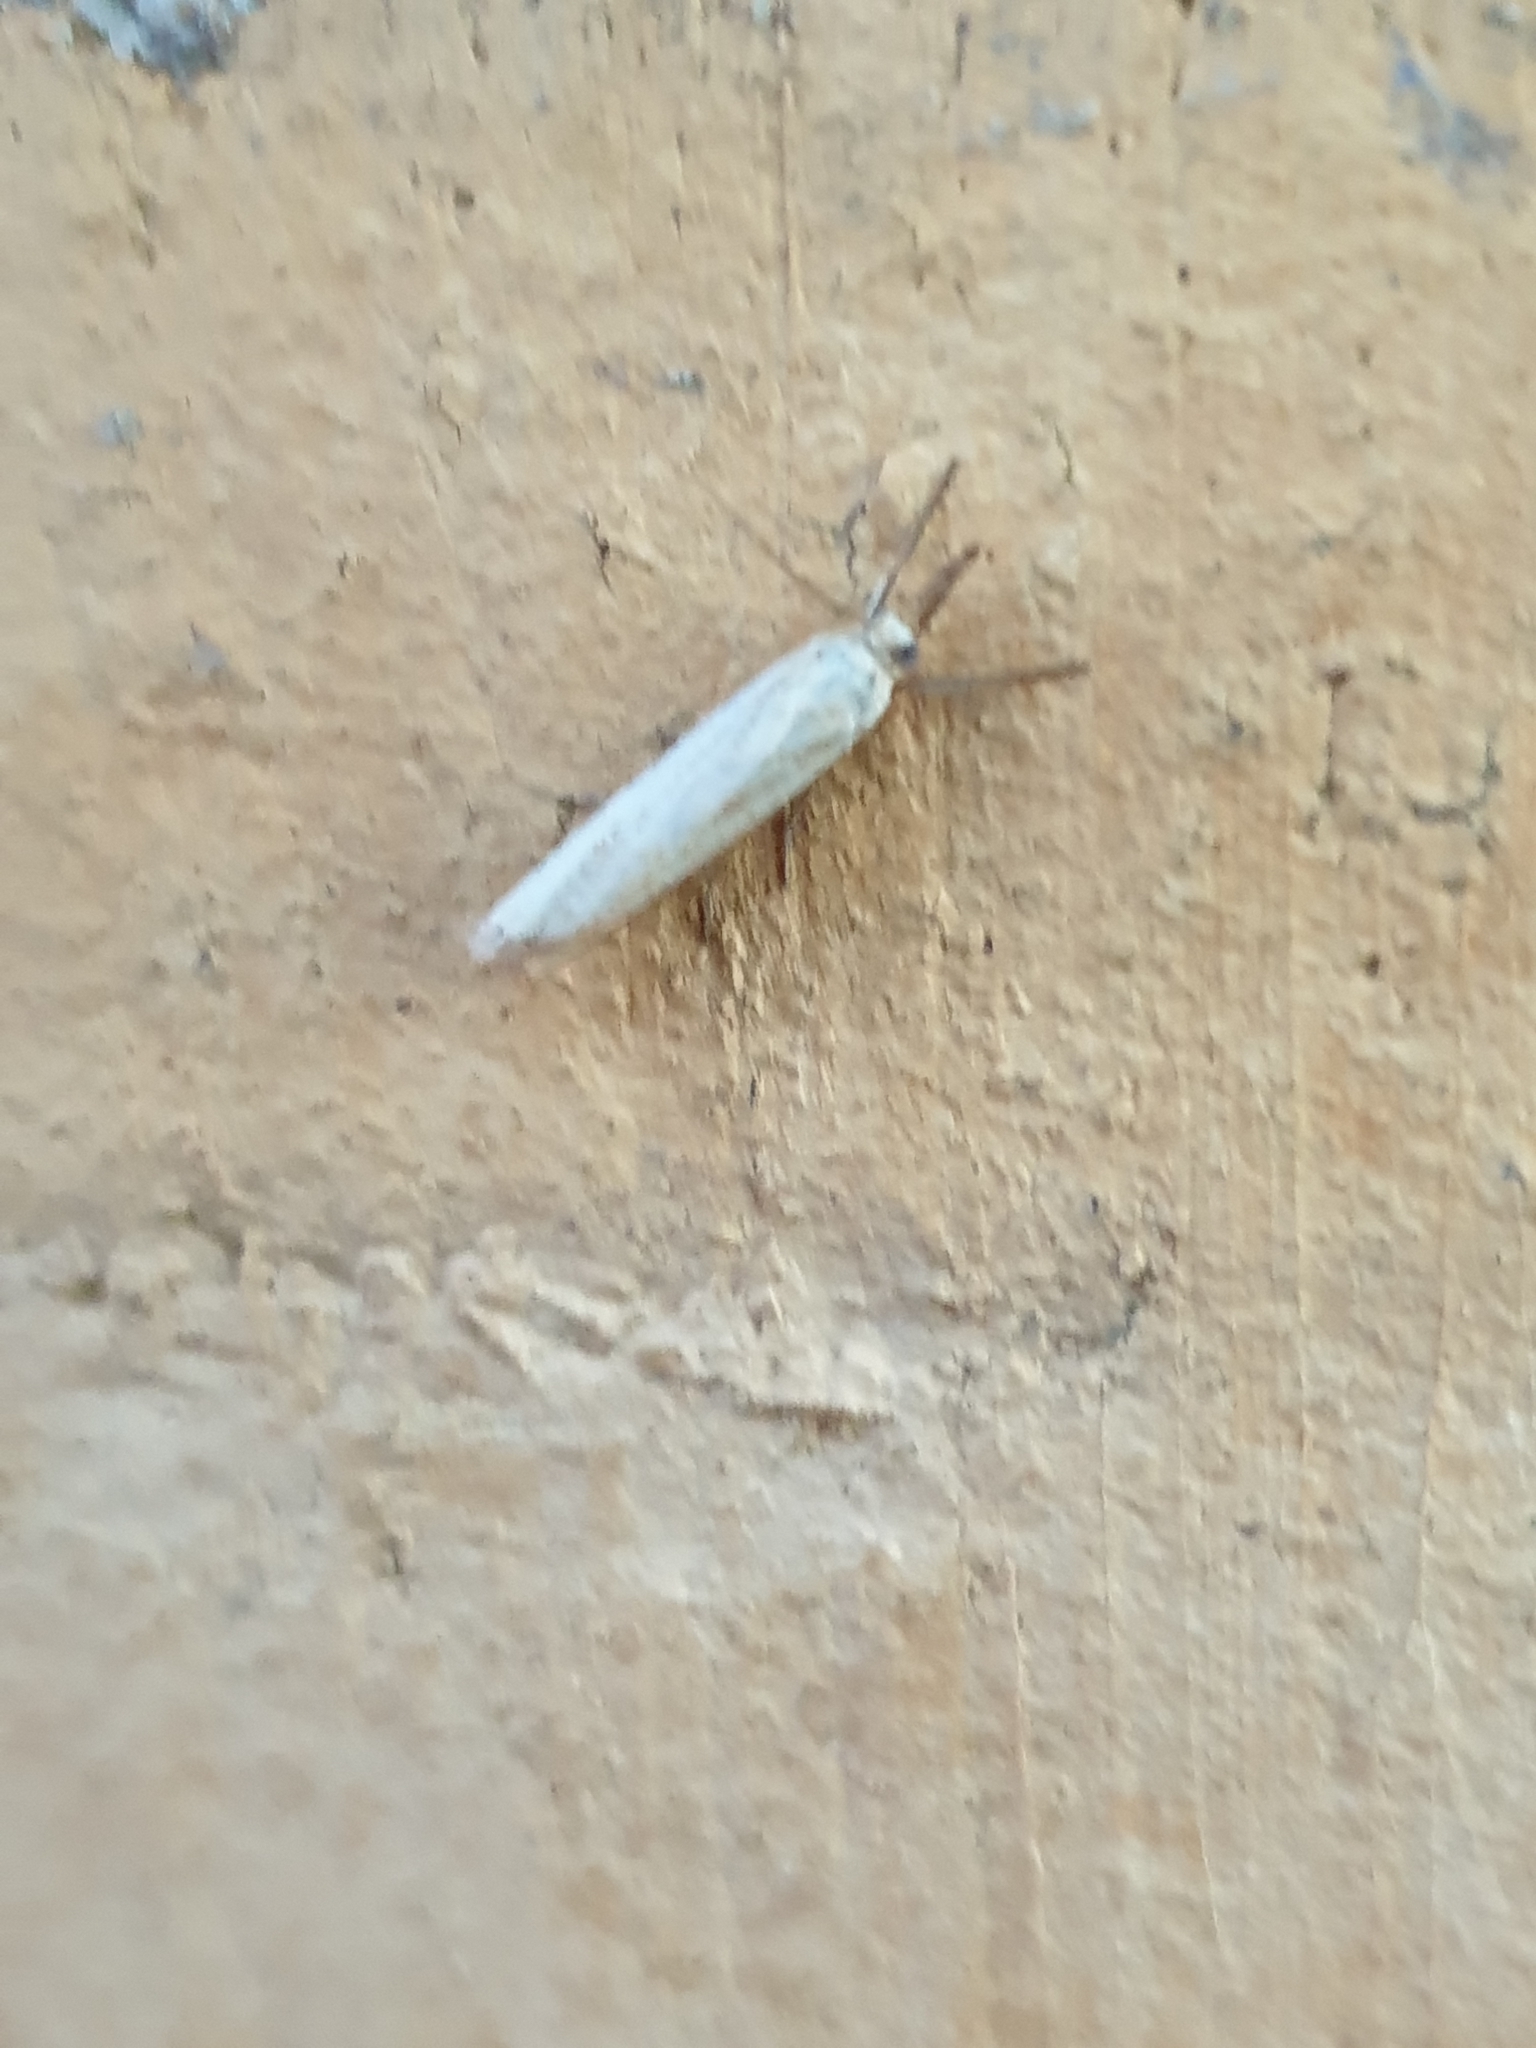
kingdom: Animalia
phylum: Arthropoda
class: Insecta
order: Lepidoptera
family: Crambidae
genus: Agriphila
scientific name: Agriphila straminella
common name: Straw grass-veneer
